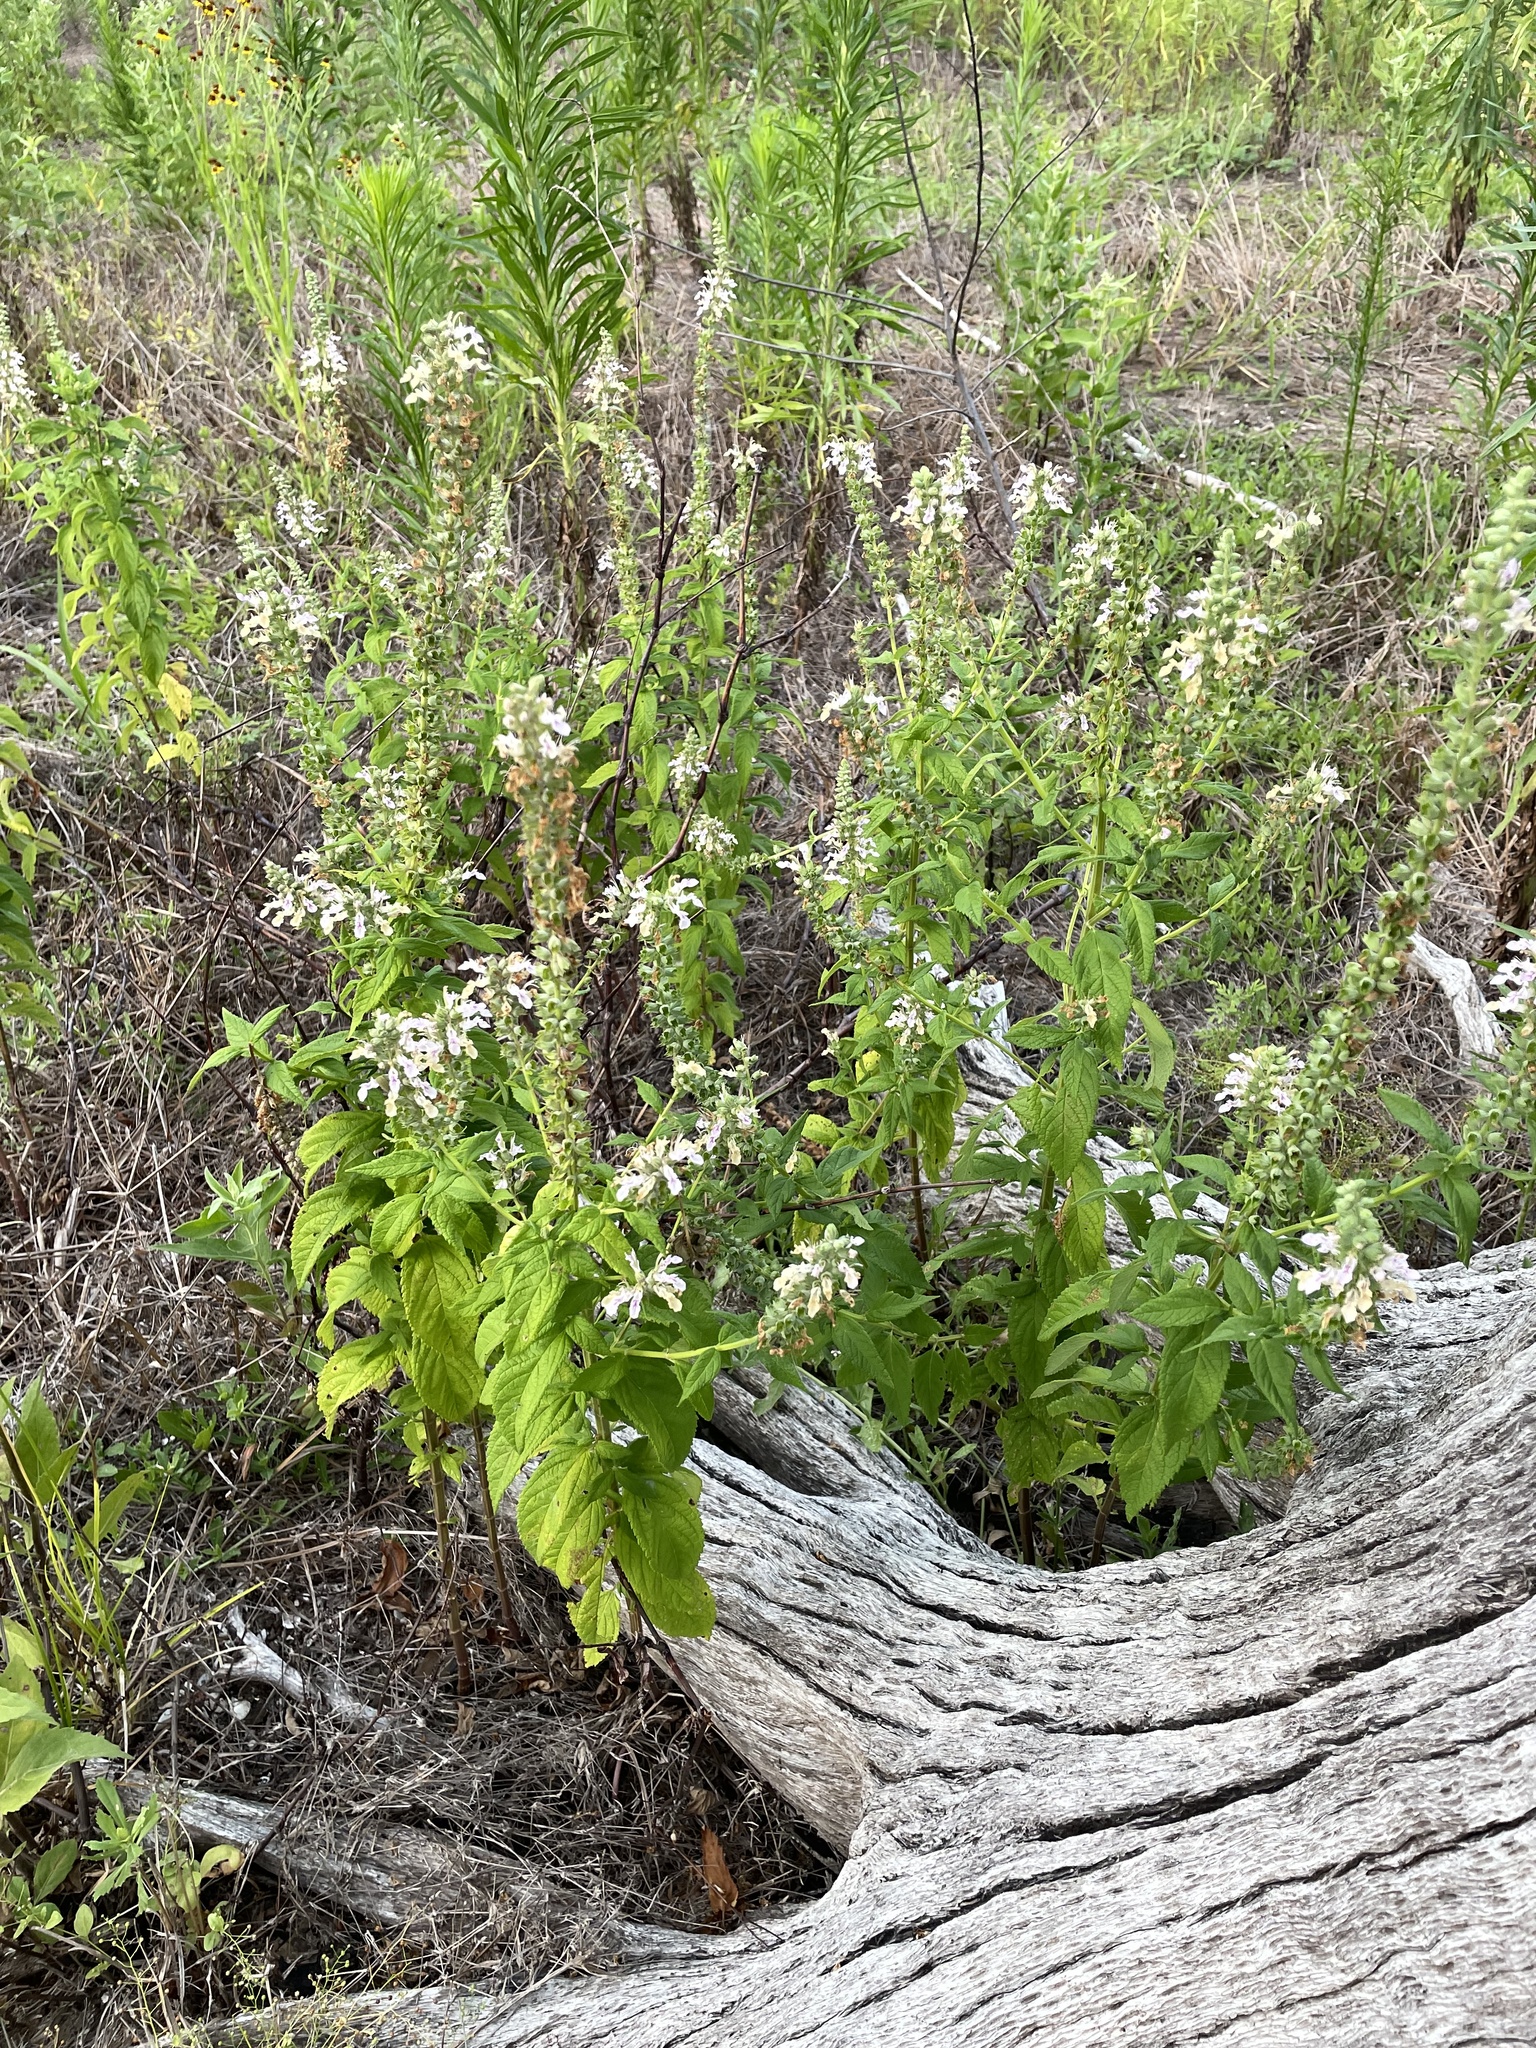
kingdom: Plantae
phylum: Tracheophyta
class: Magnoliopsida
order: Lamiales
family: Lamiaceae
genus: Teucrium
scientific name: Teucrium canadense
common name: American germander
